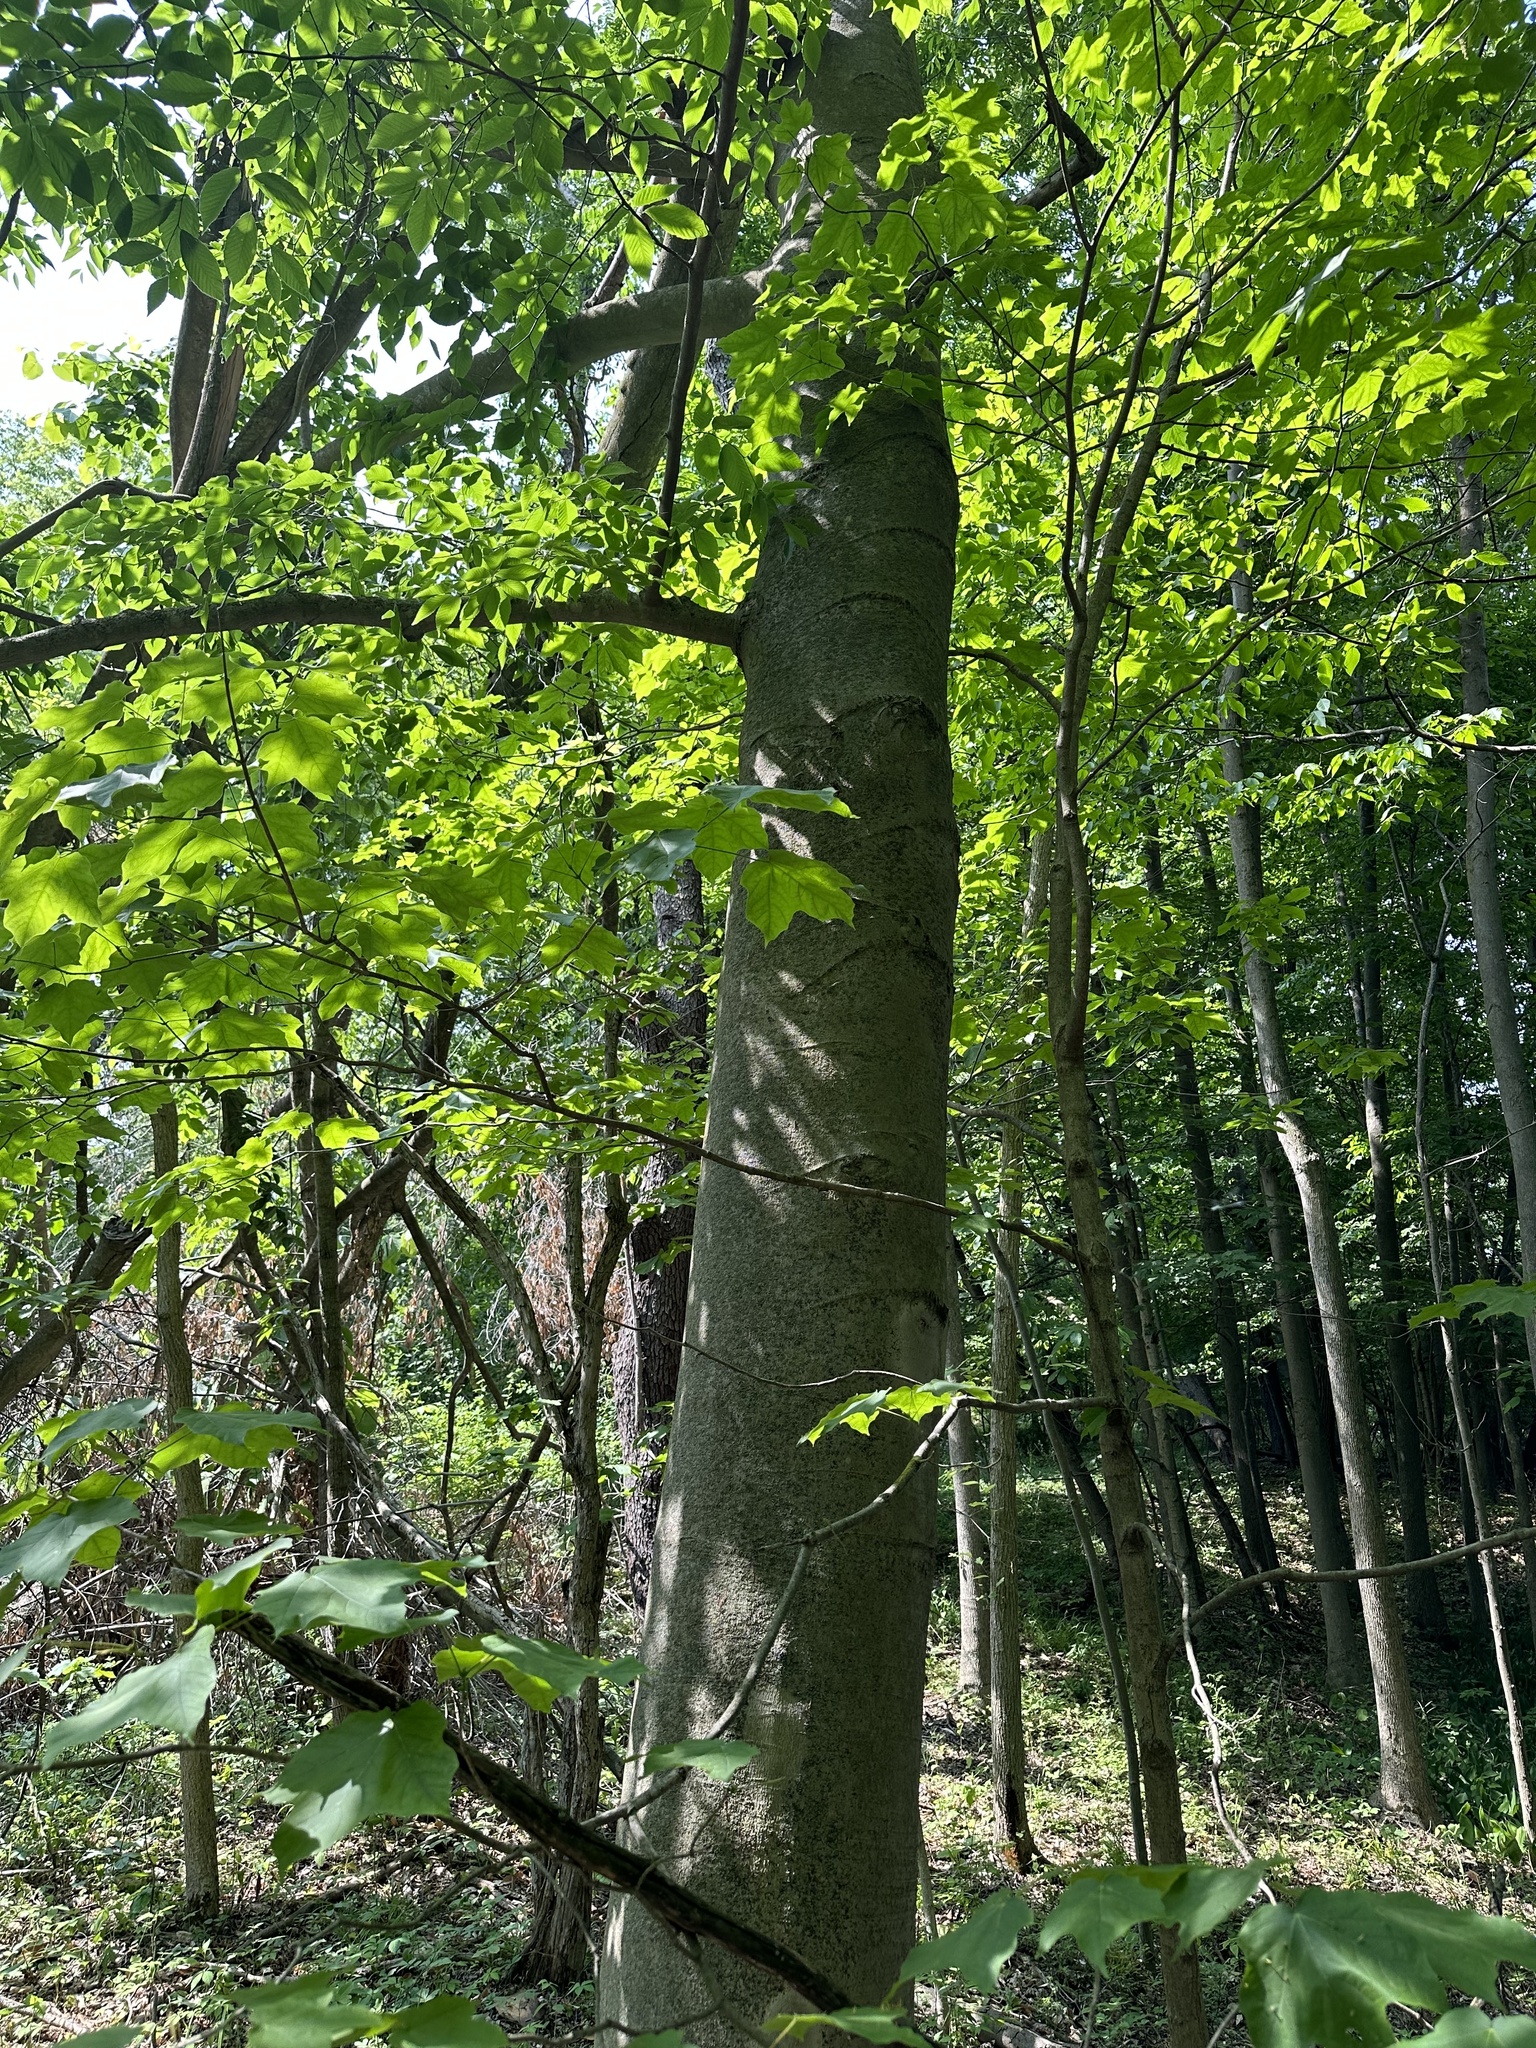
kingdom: Plantae
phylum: Tracheophyta
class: Magnoliopsida
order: Fagales
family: Fagaceae
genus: Fagus
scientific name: Fagus grandifolia
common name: American beech
